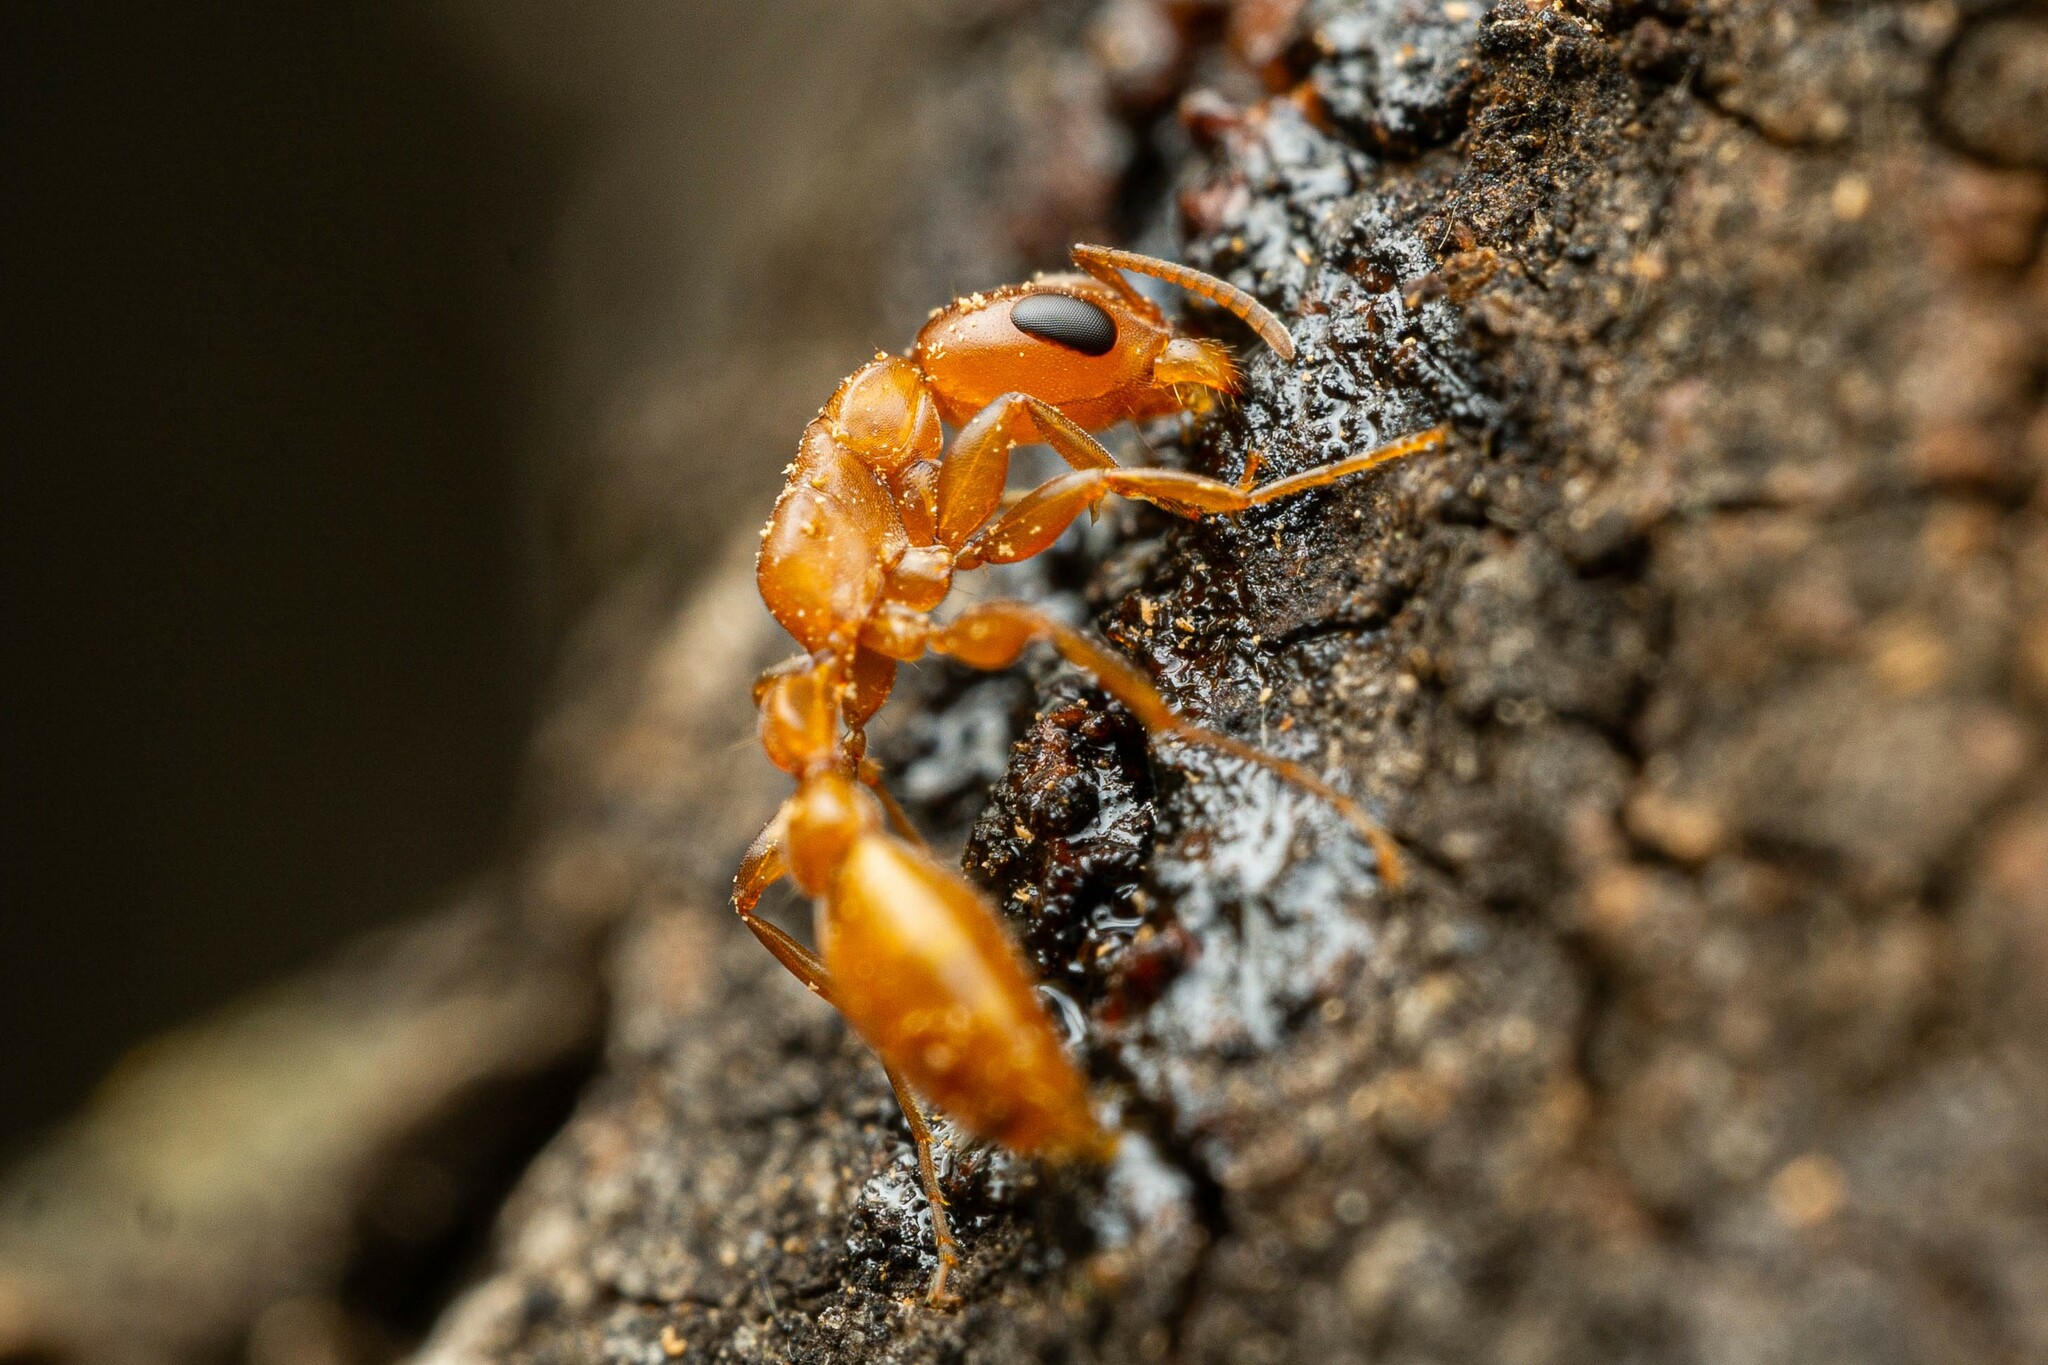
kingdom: Animalia
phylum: Arthropoda
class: Insecta
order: Hymenoptera
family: Formicidae
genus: Pseudomyrmex
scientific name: Pseudomyrmex apache
